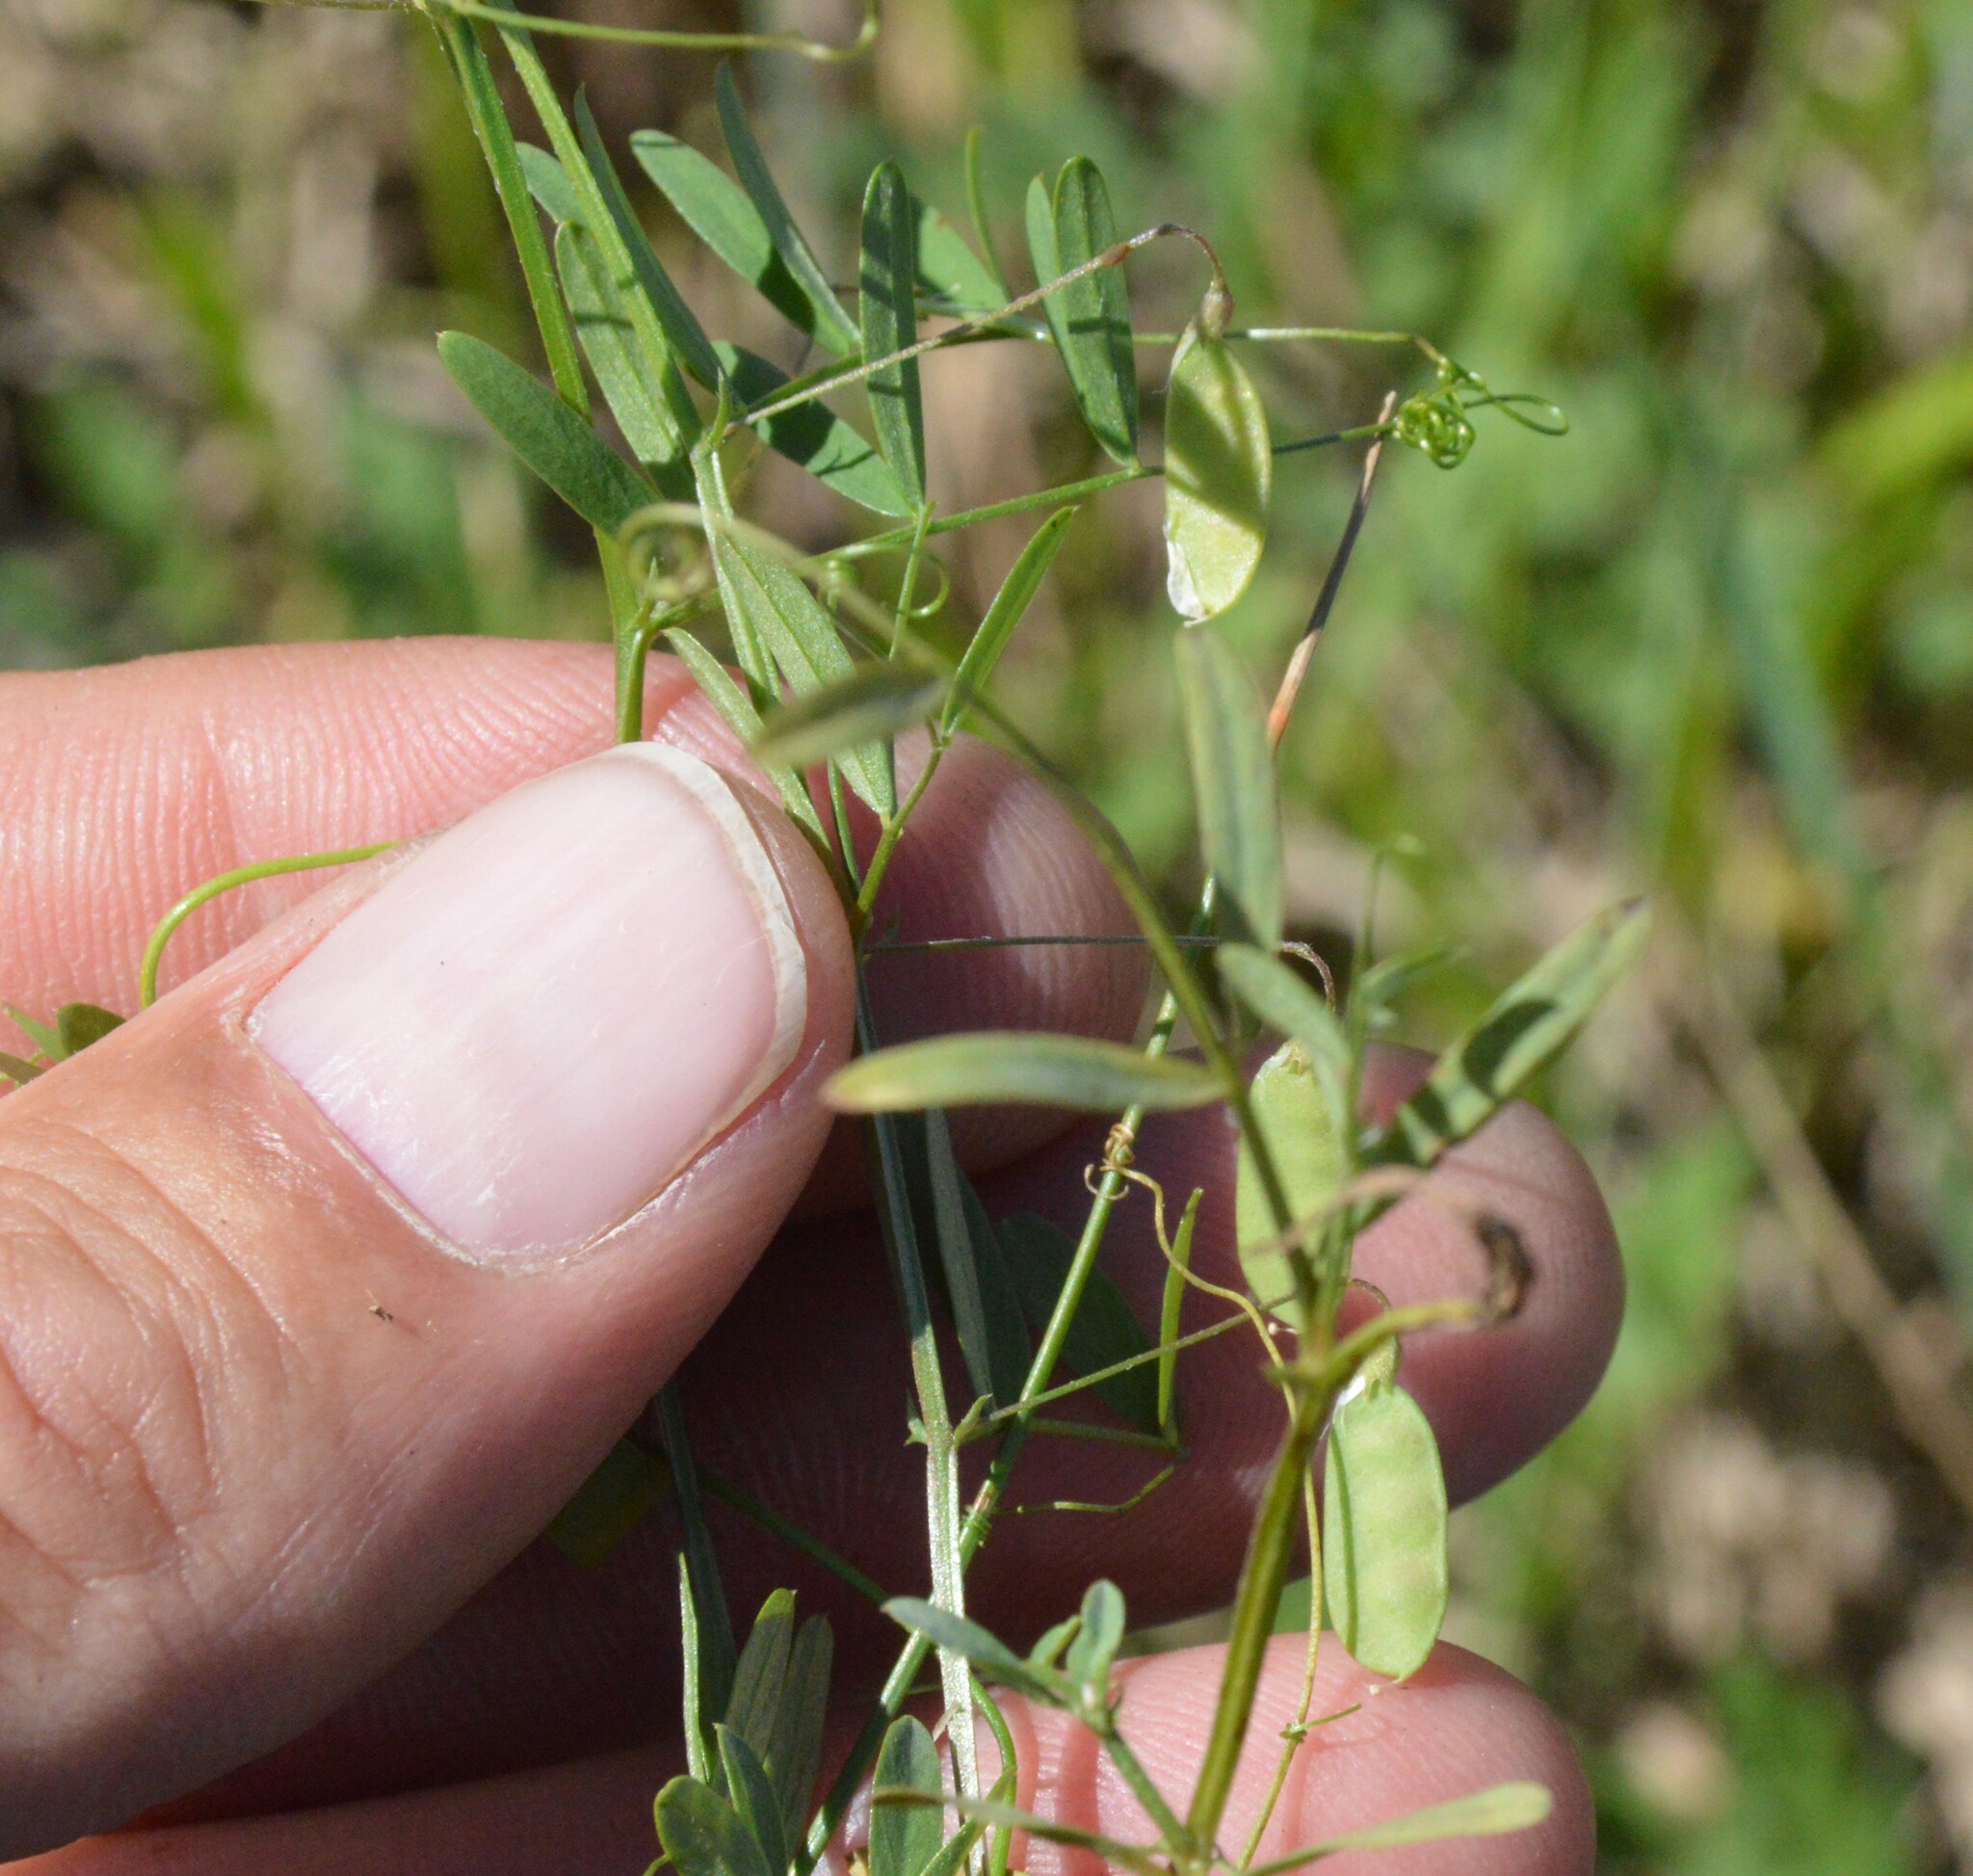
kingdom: Plantae
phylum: Tracheophyta
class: Magnoliopsida
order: Fabales
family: Fabaceae
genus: Vicia
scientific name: Vicia tetrasperma
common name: Smooth tare
